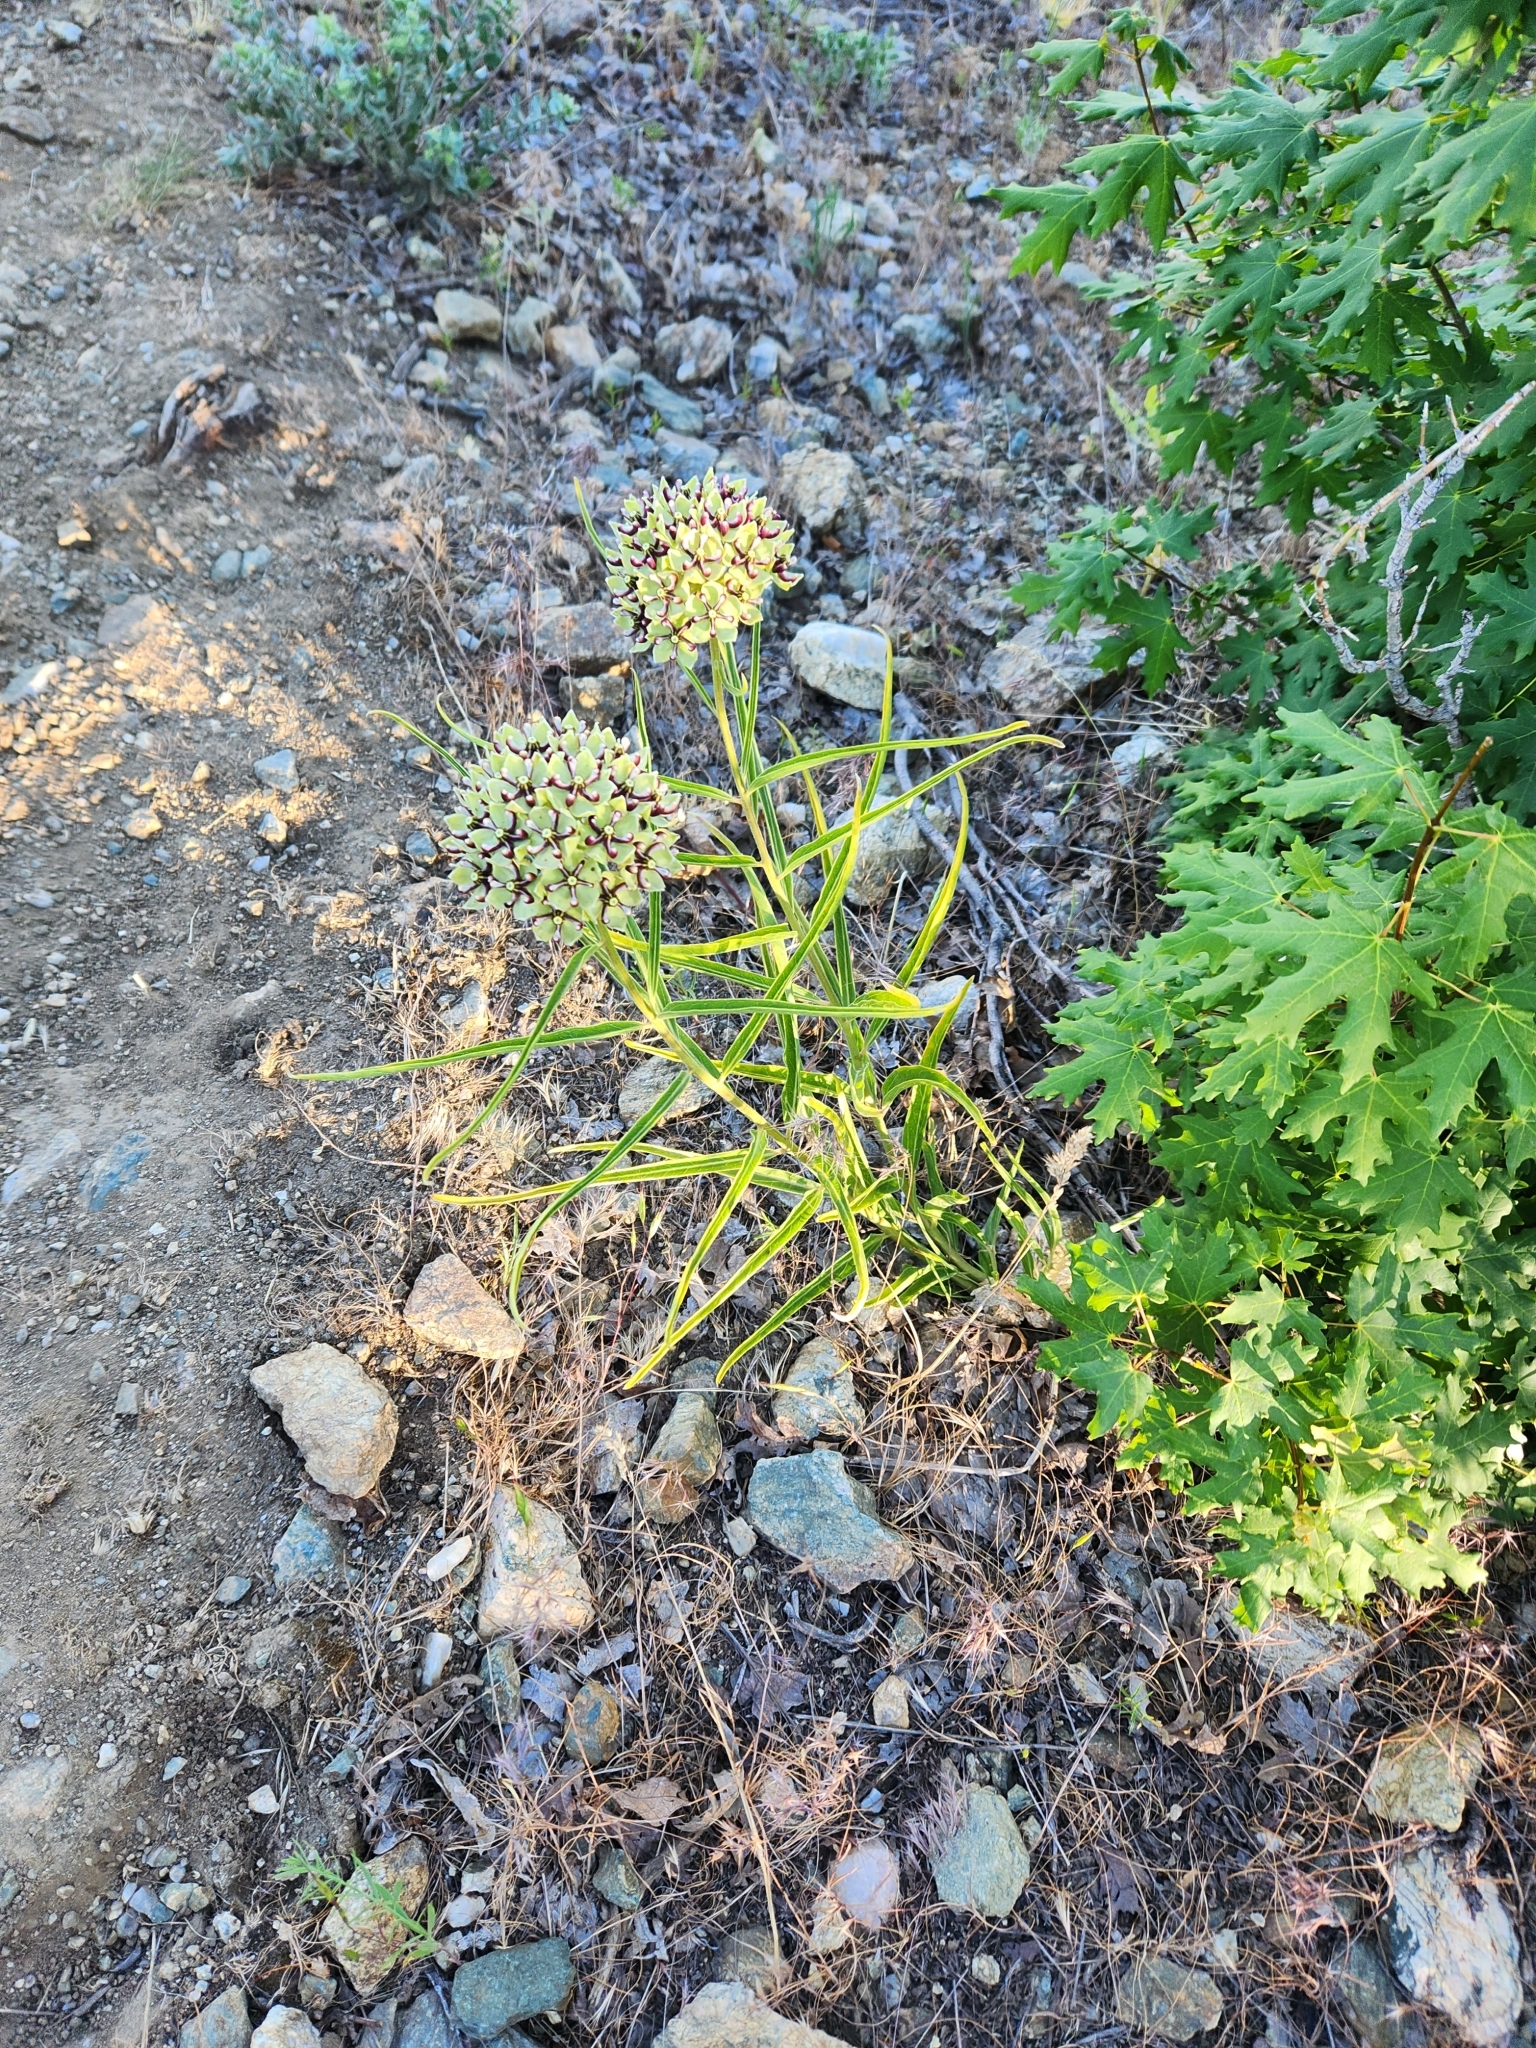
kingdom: Plantae
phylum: Tracheophyta
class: Magnoliopsida
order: Gentianales
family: Apocynaceae
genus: Asclepias
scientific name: Asclepias asperula
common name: Antelope horns
